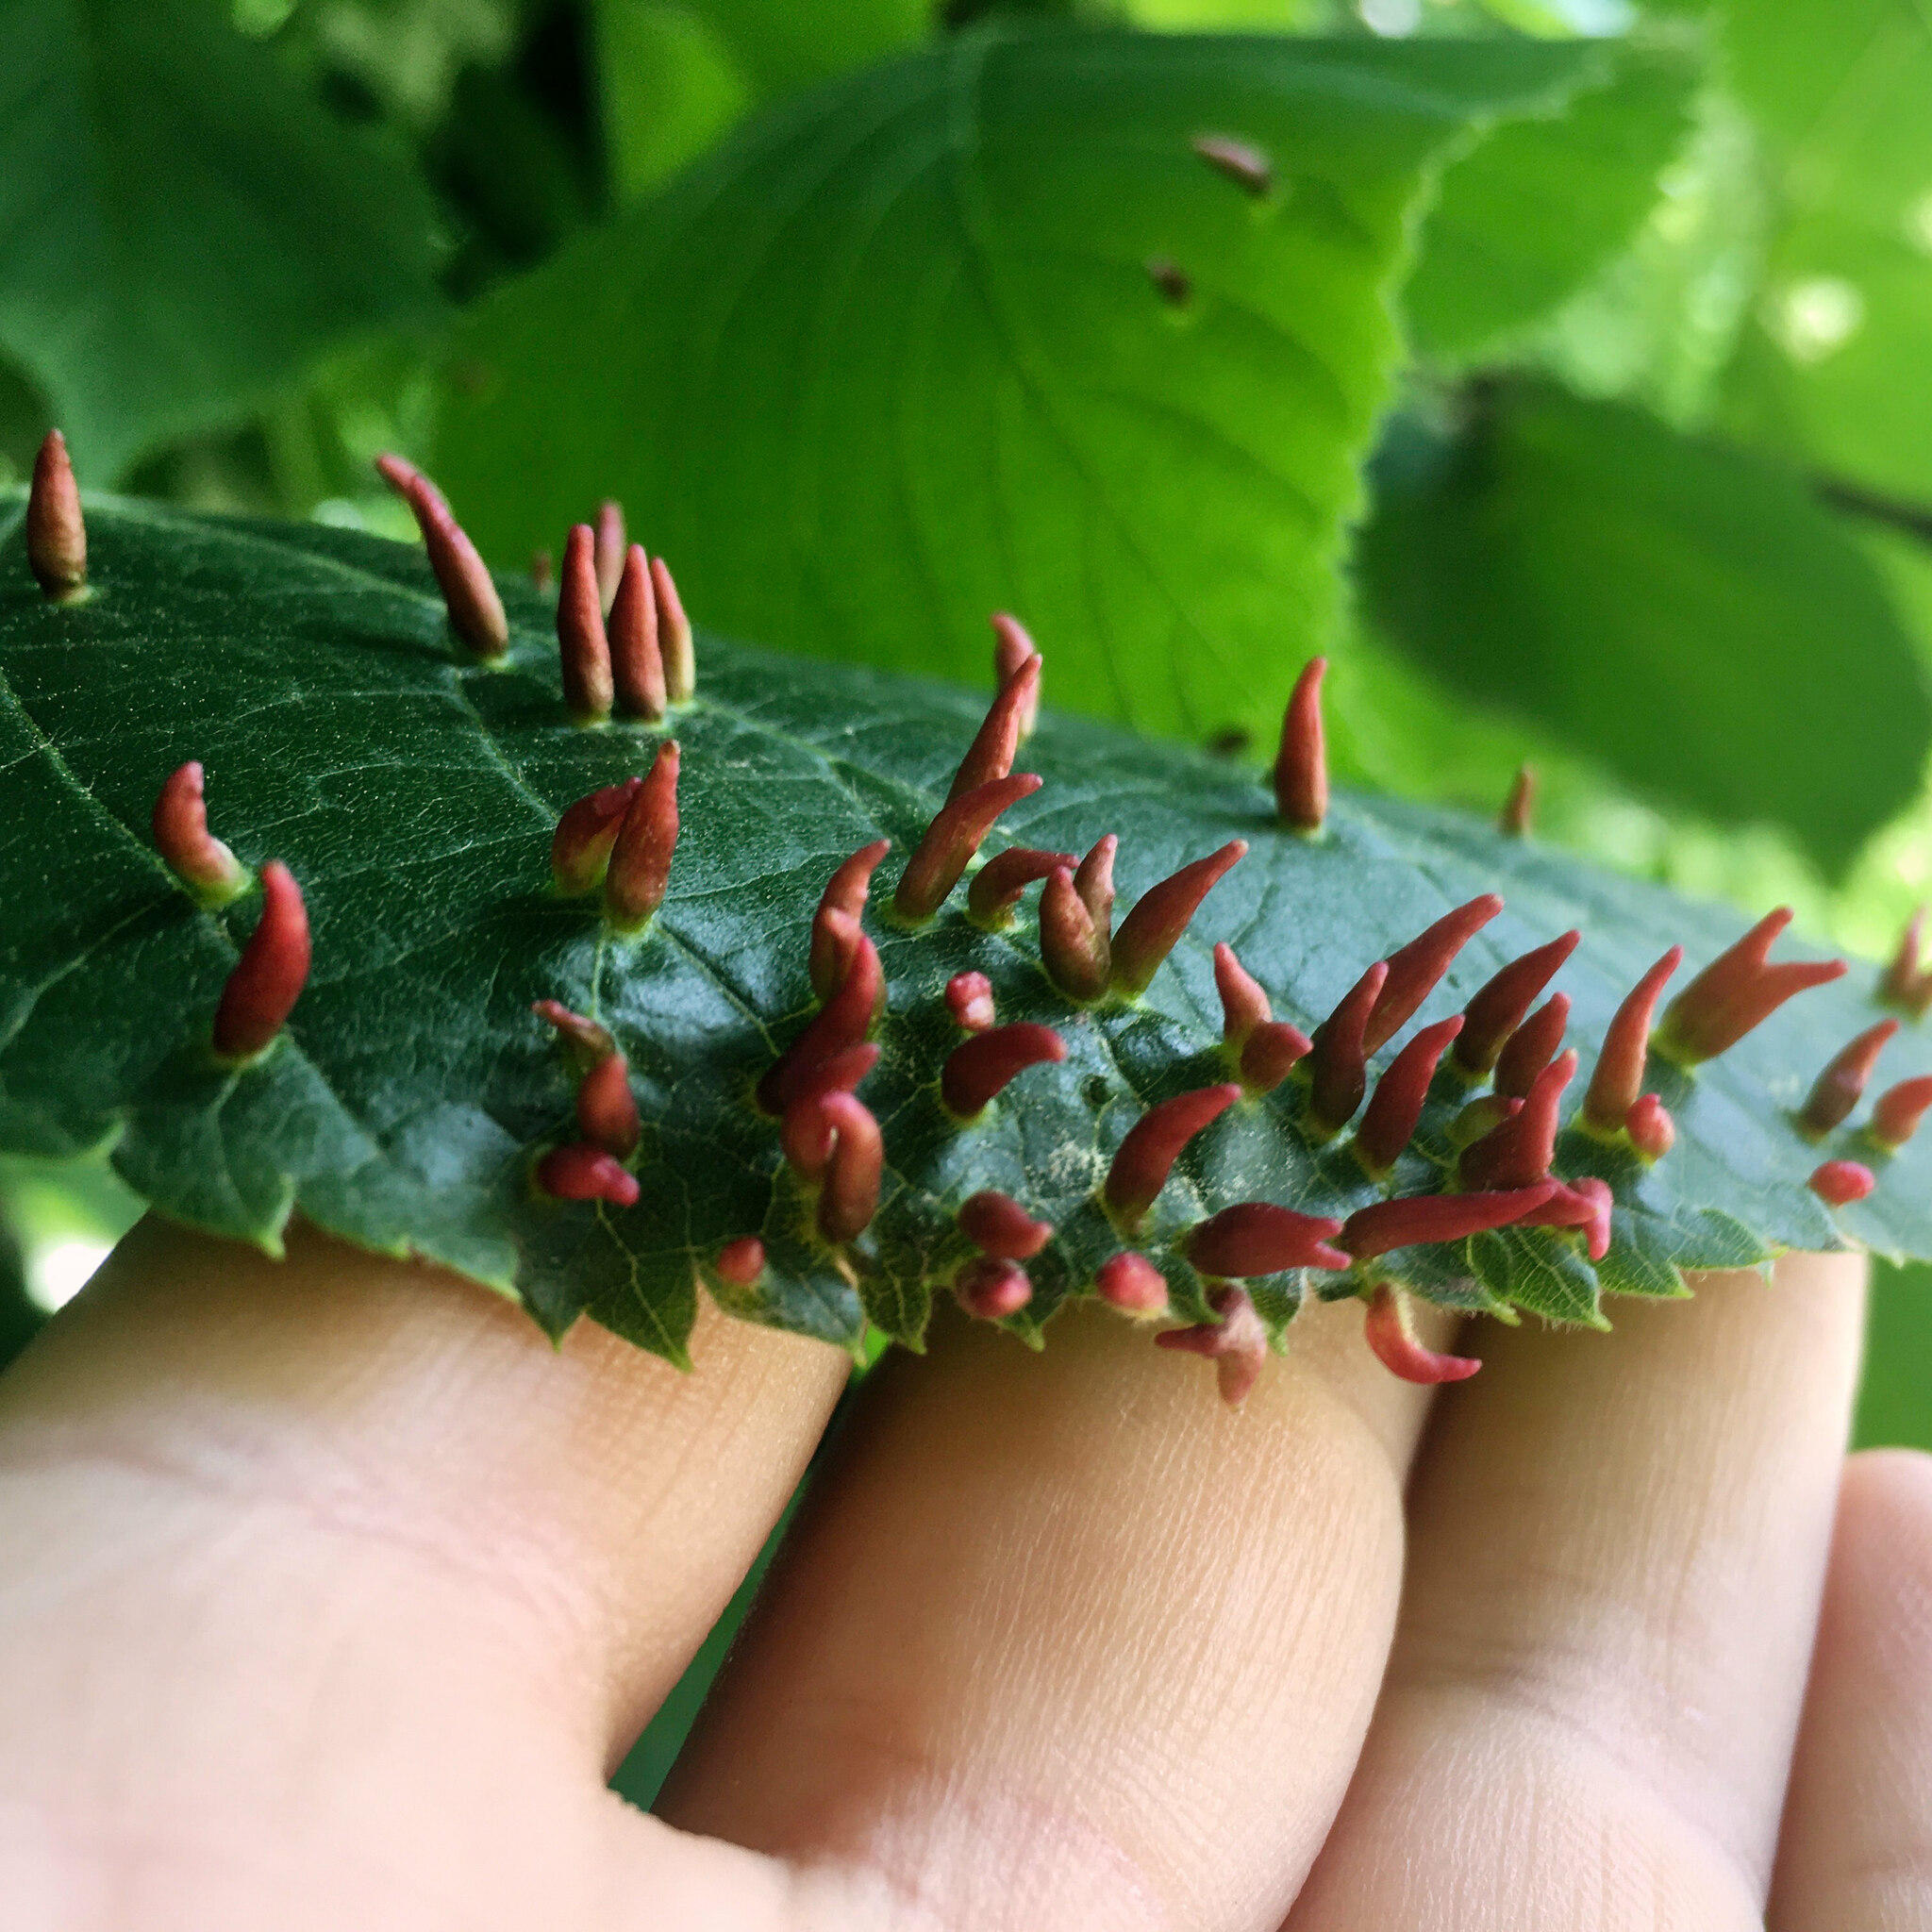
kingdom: Animalia
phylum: Arthropoda
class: Arachnida
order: Trombidiformes
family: Eriophyidae
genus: Eriophyes
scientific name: Eriophyes tiliae
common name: Red nail gall mite
